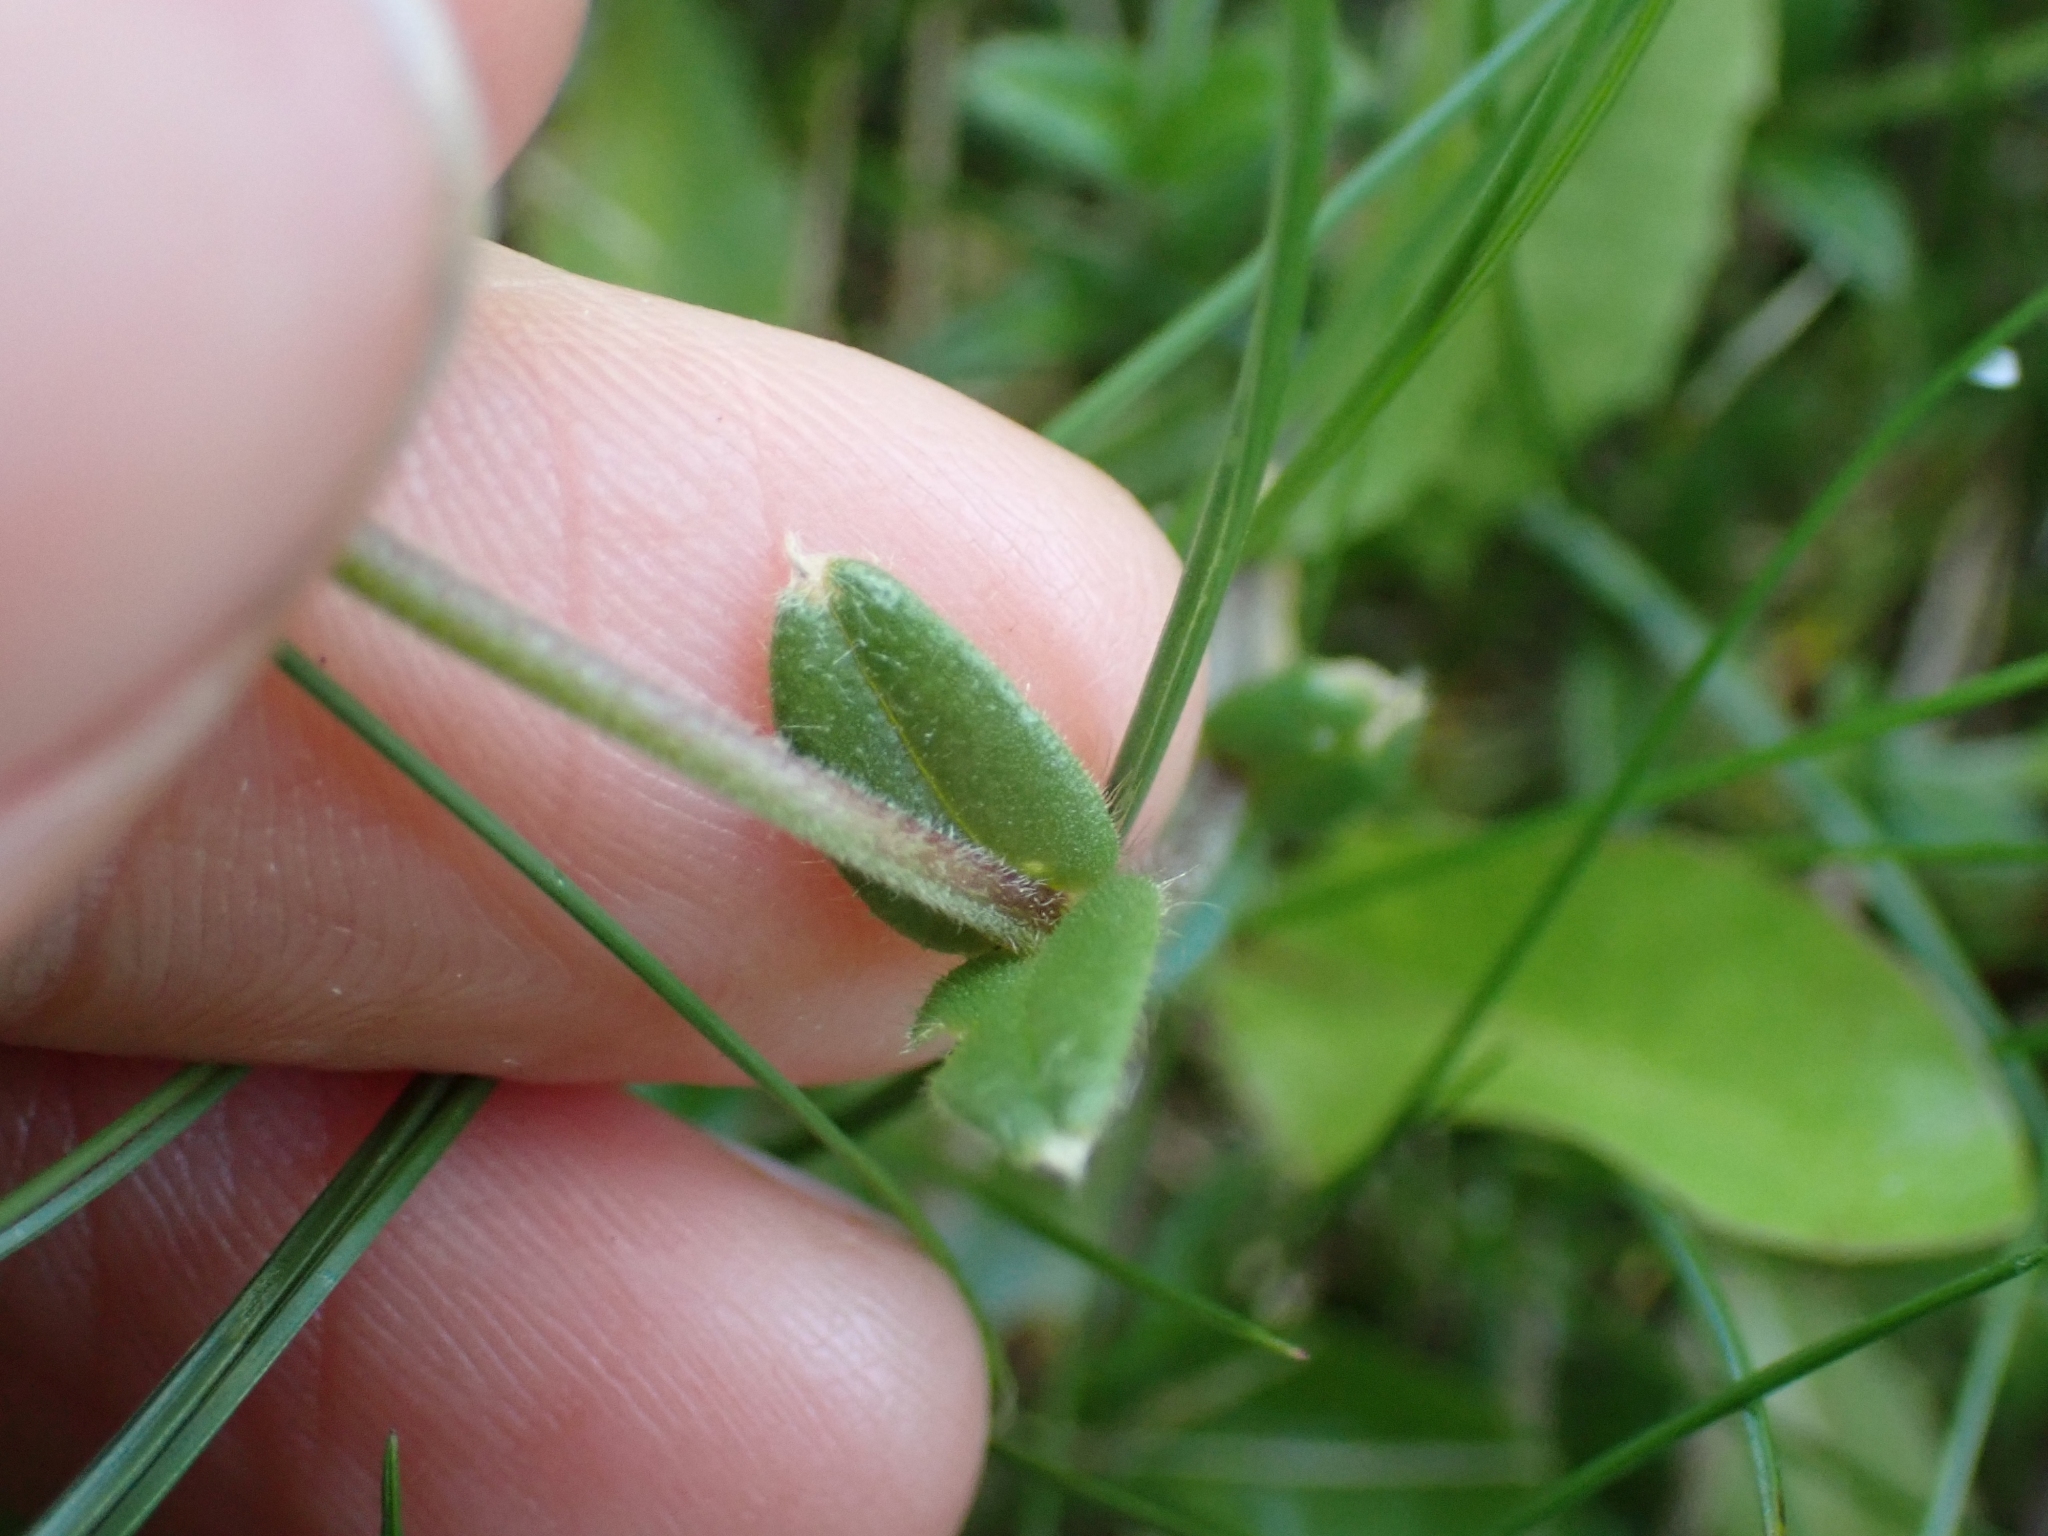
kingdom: Plantae
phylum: Tracheophyta
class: Magnoliopsida
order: Caryophyllales
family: Caryophyllaceae
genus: Cerastium
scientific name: Cerastium fontanum
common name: Common mouse-ear
